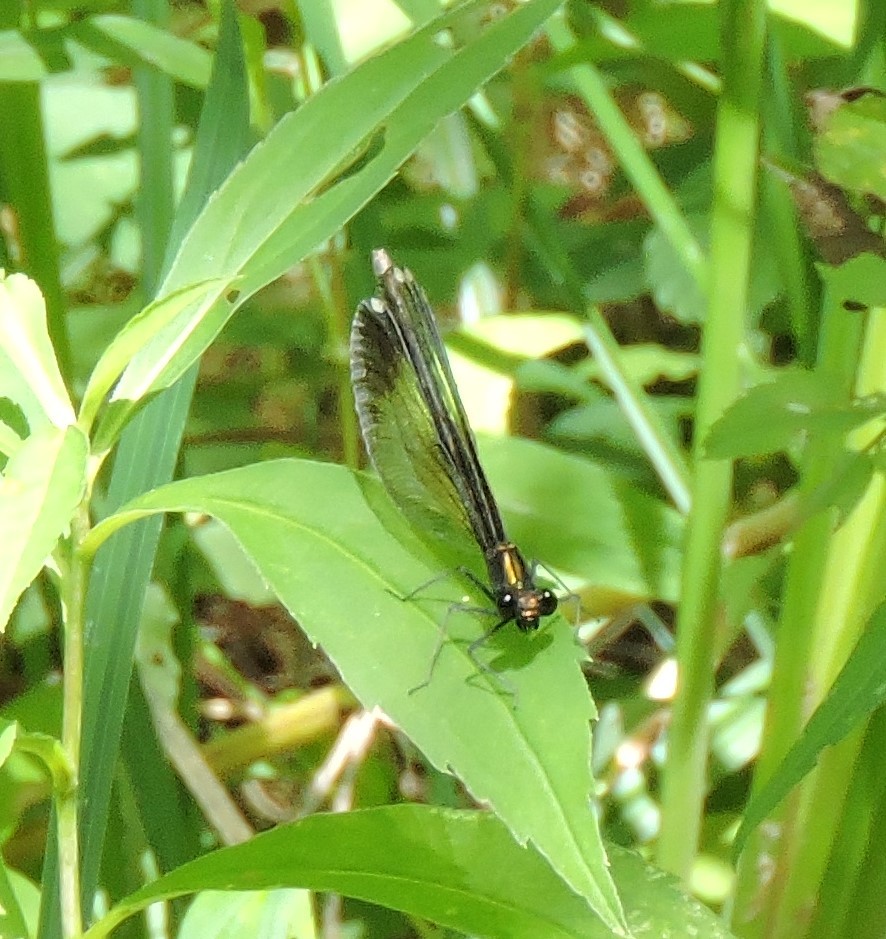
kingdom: Animalia
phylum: Arthropoda
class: Insecta
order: Odonata
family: Calopterygidae
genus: Calopteryx
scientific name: Calopteryx maculata
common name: Ebony jewelwing
